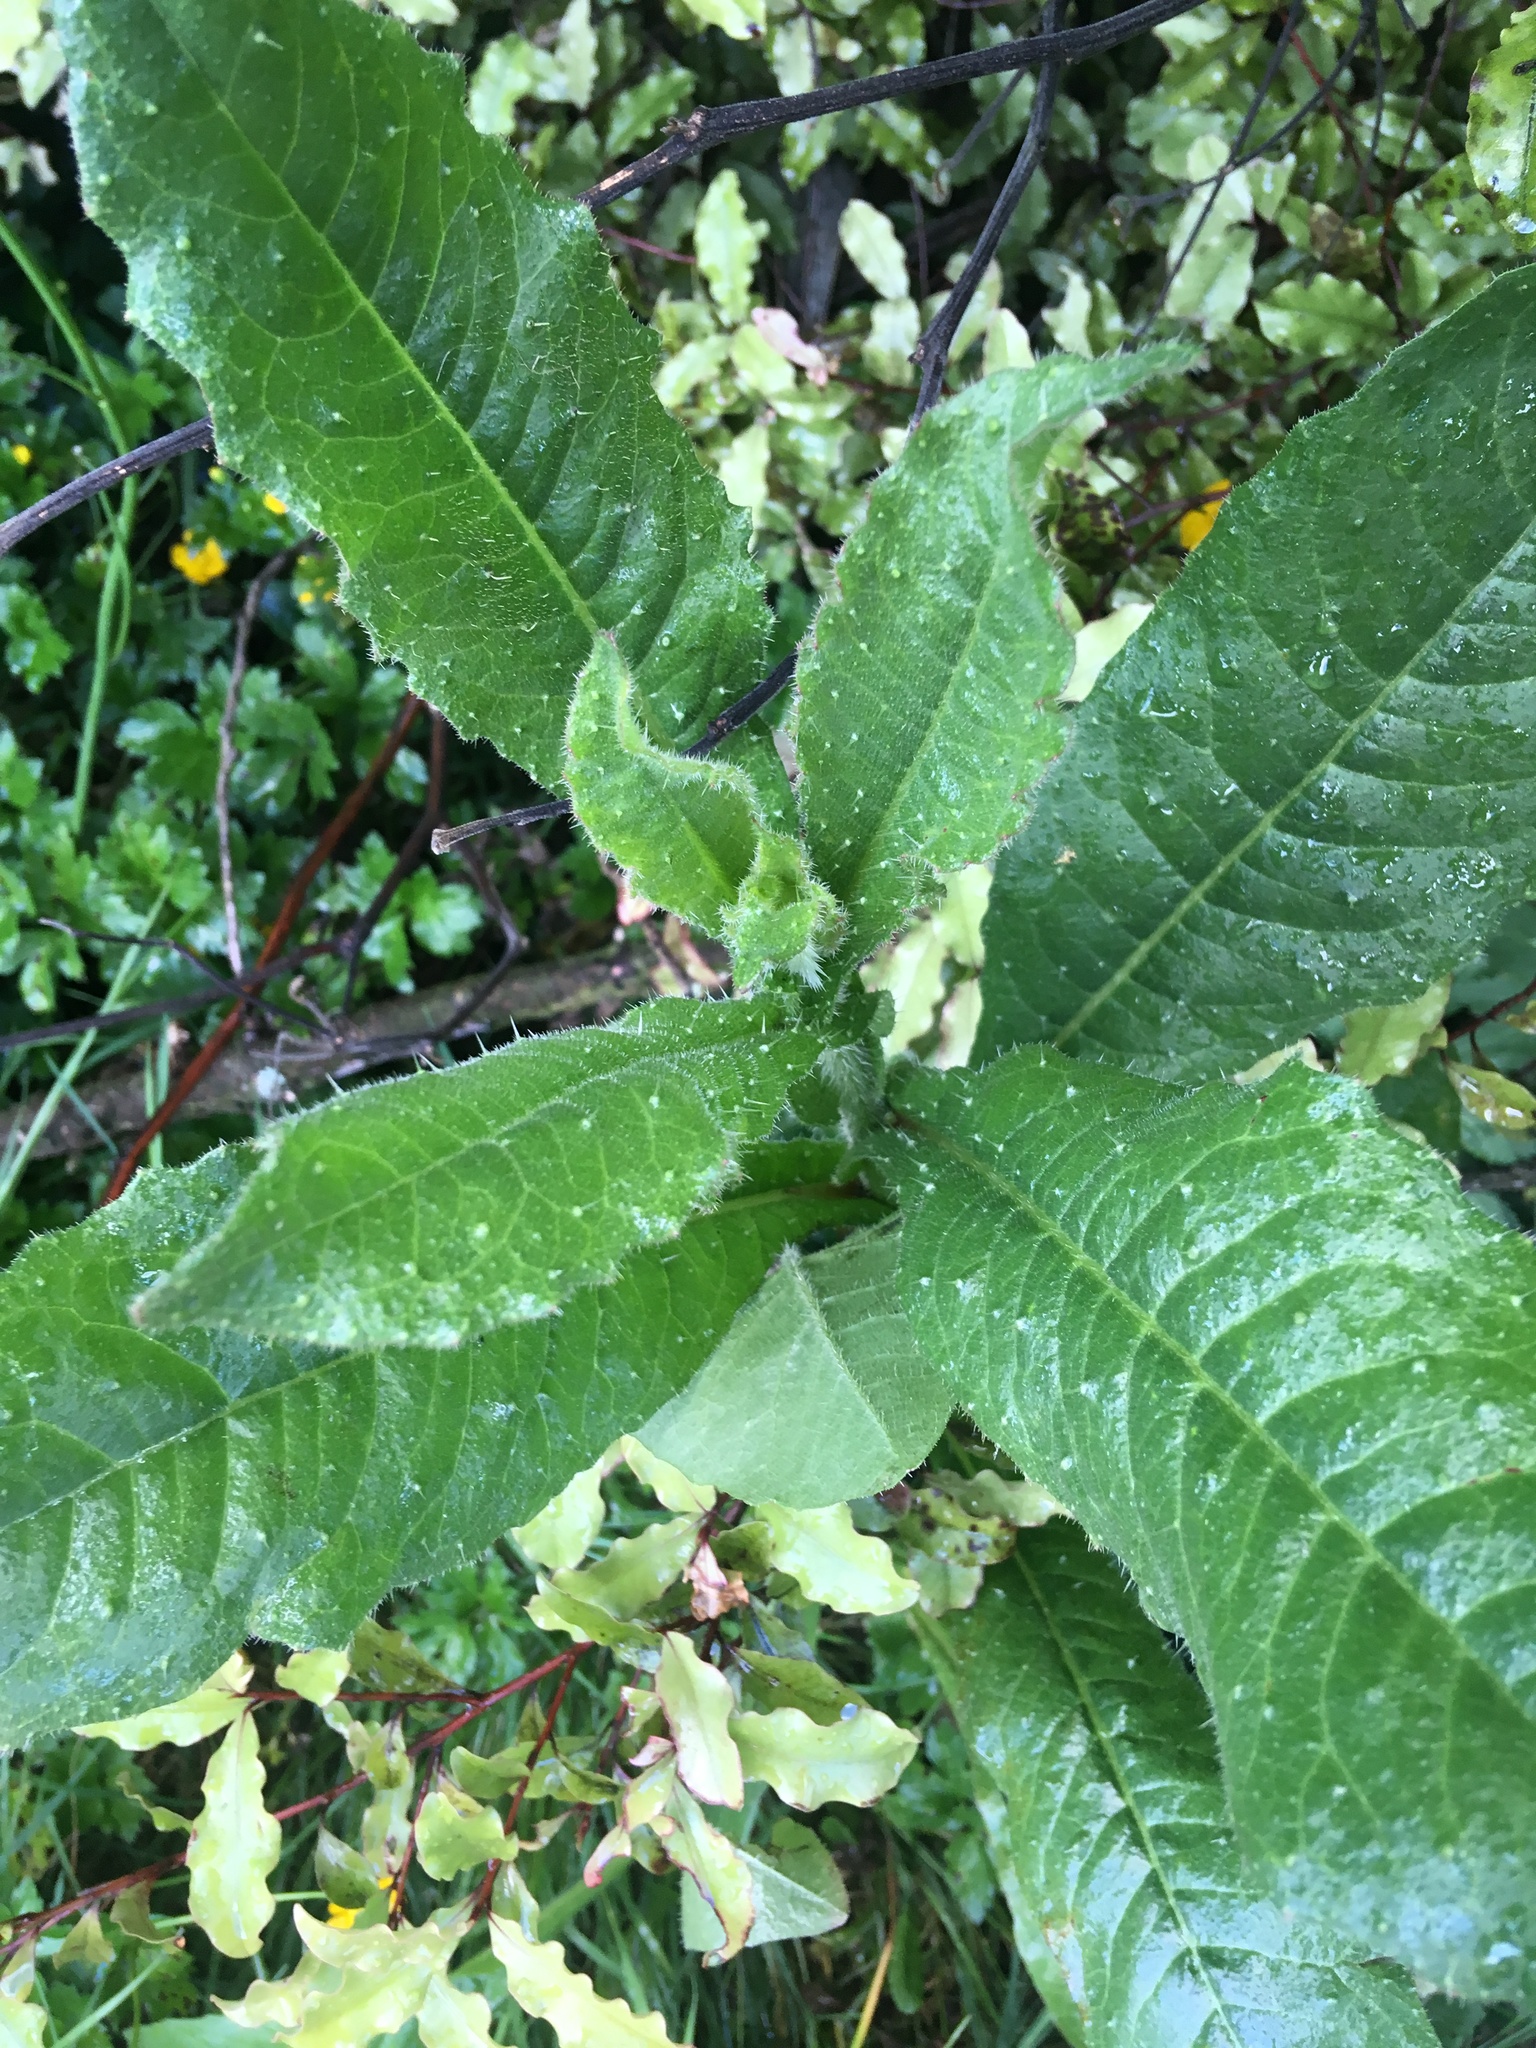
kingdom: Plantae
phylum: Tracheophyta
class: Magnoliopsida
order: Asterales
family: Asteraceae
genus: Helminthotheca
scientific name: Helminthotheca echioides
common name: Ox-tongue
